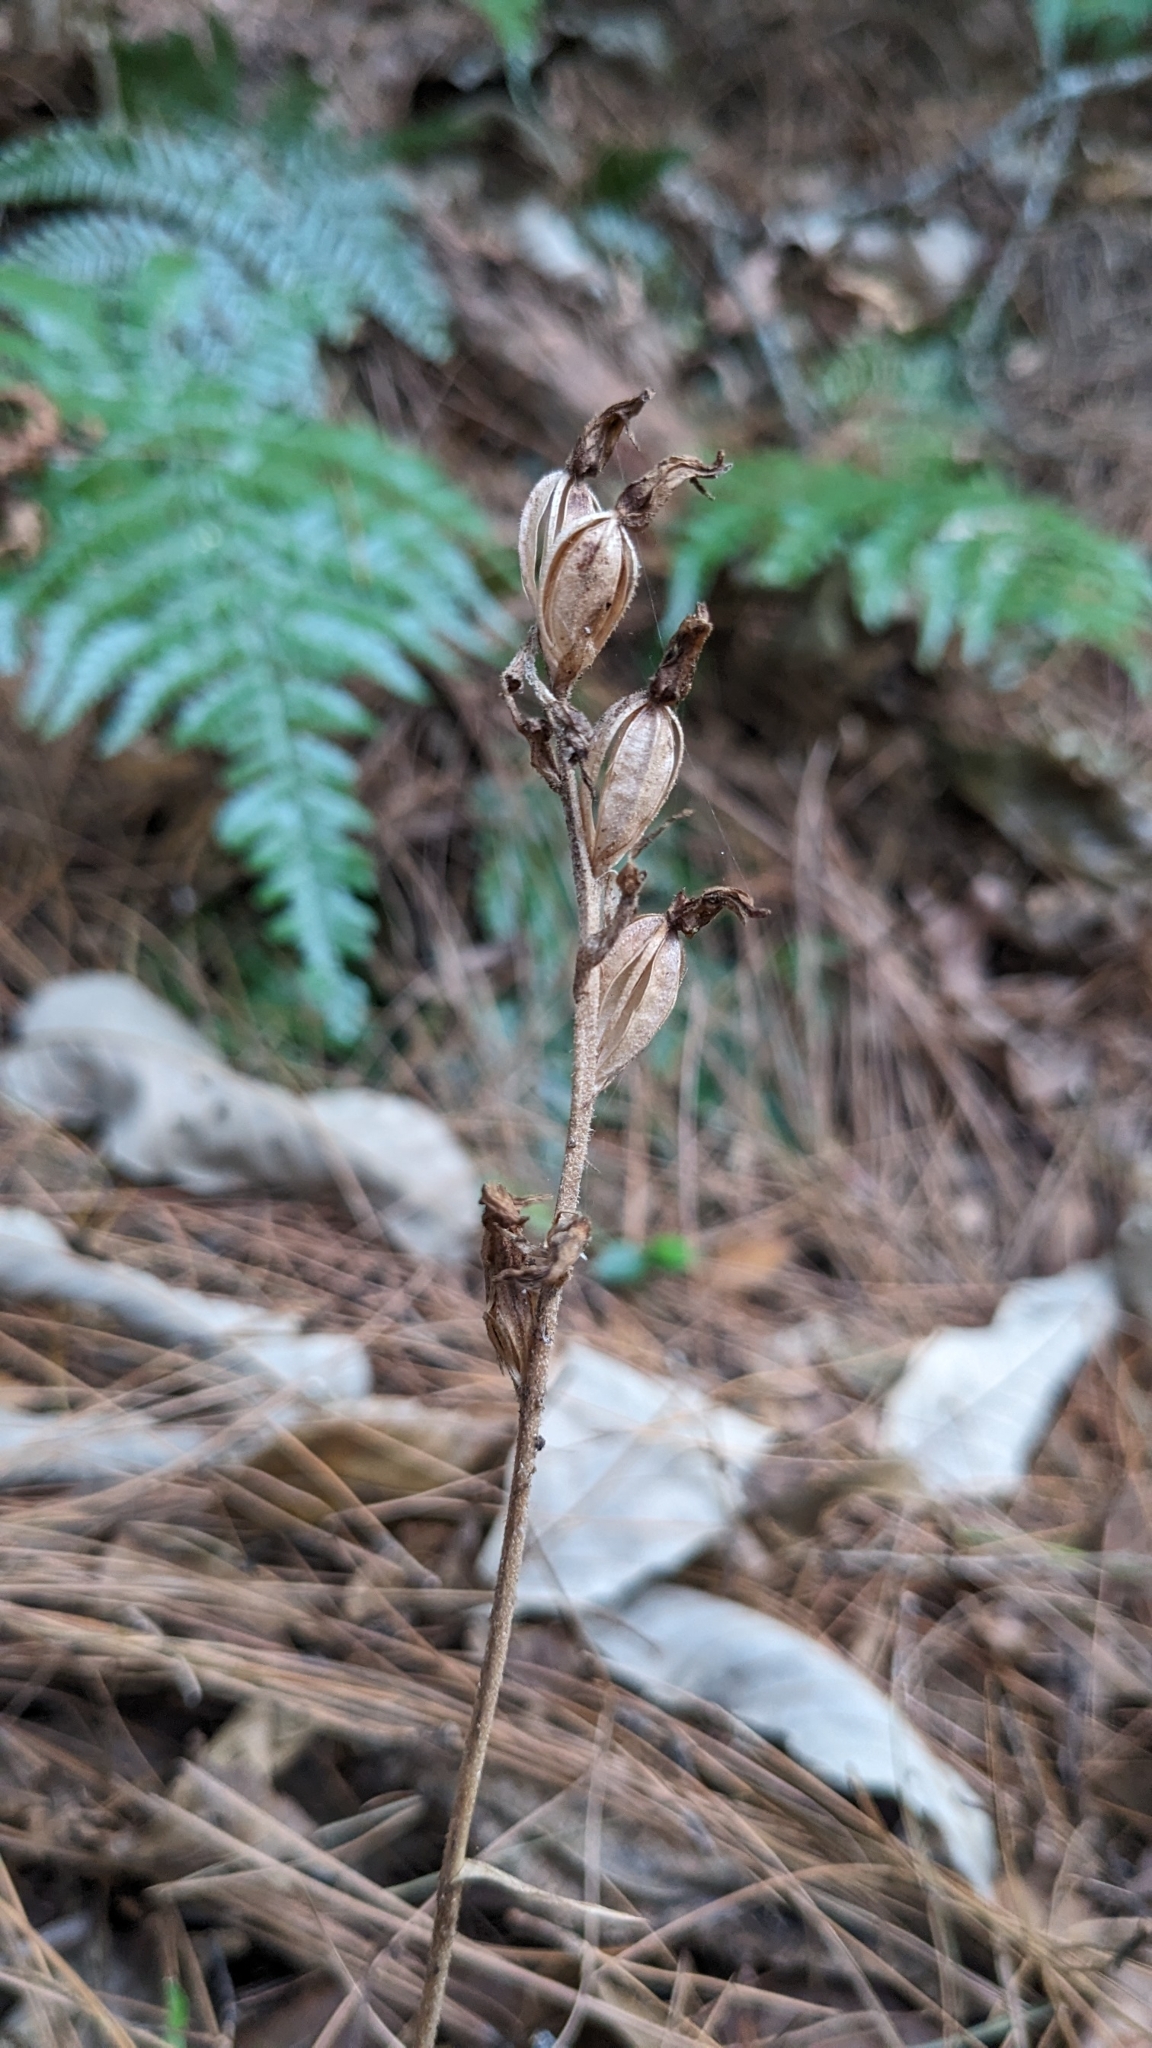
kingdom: Plantae
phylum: Tracheophyta
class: Liliopsida
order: Asparagales
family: Orchidaceae
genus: Goodyera
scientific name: Goodyera schlechtendaliana
